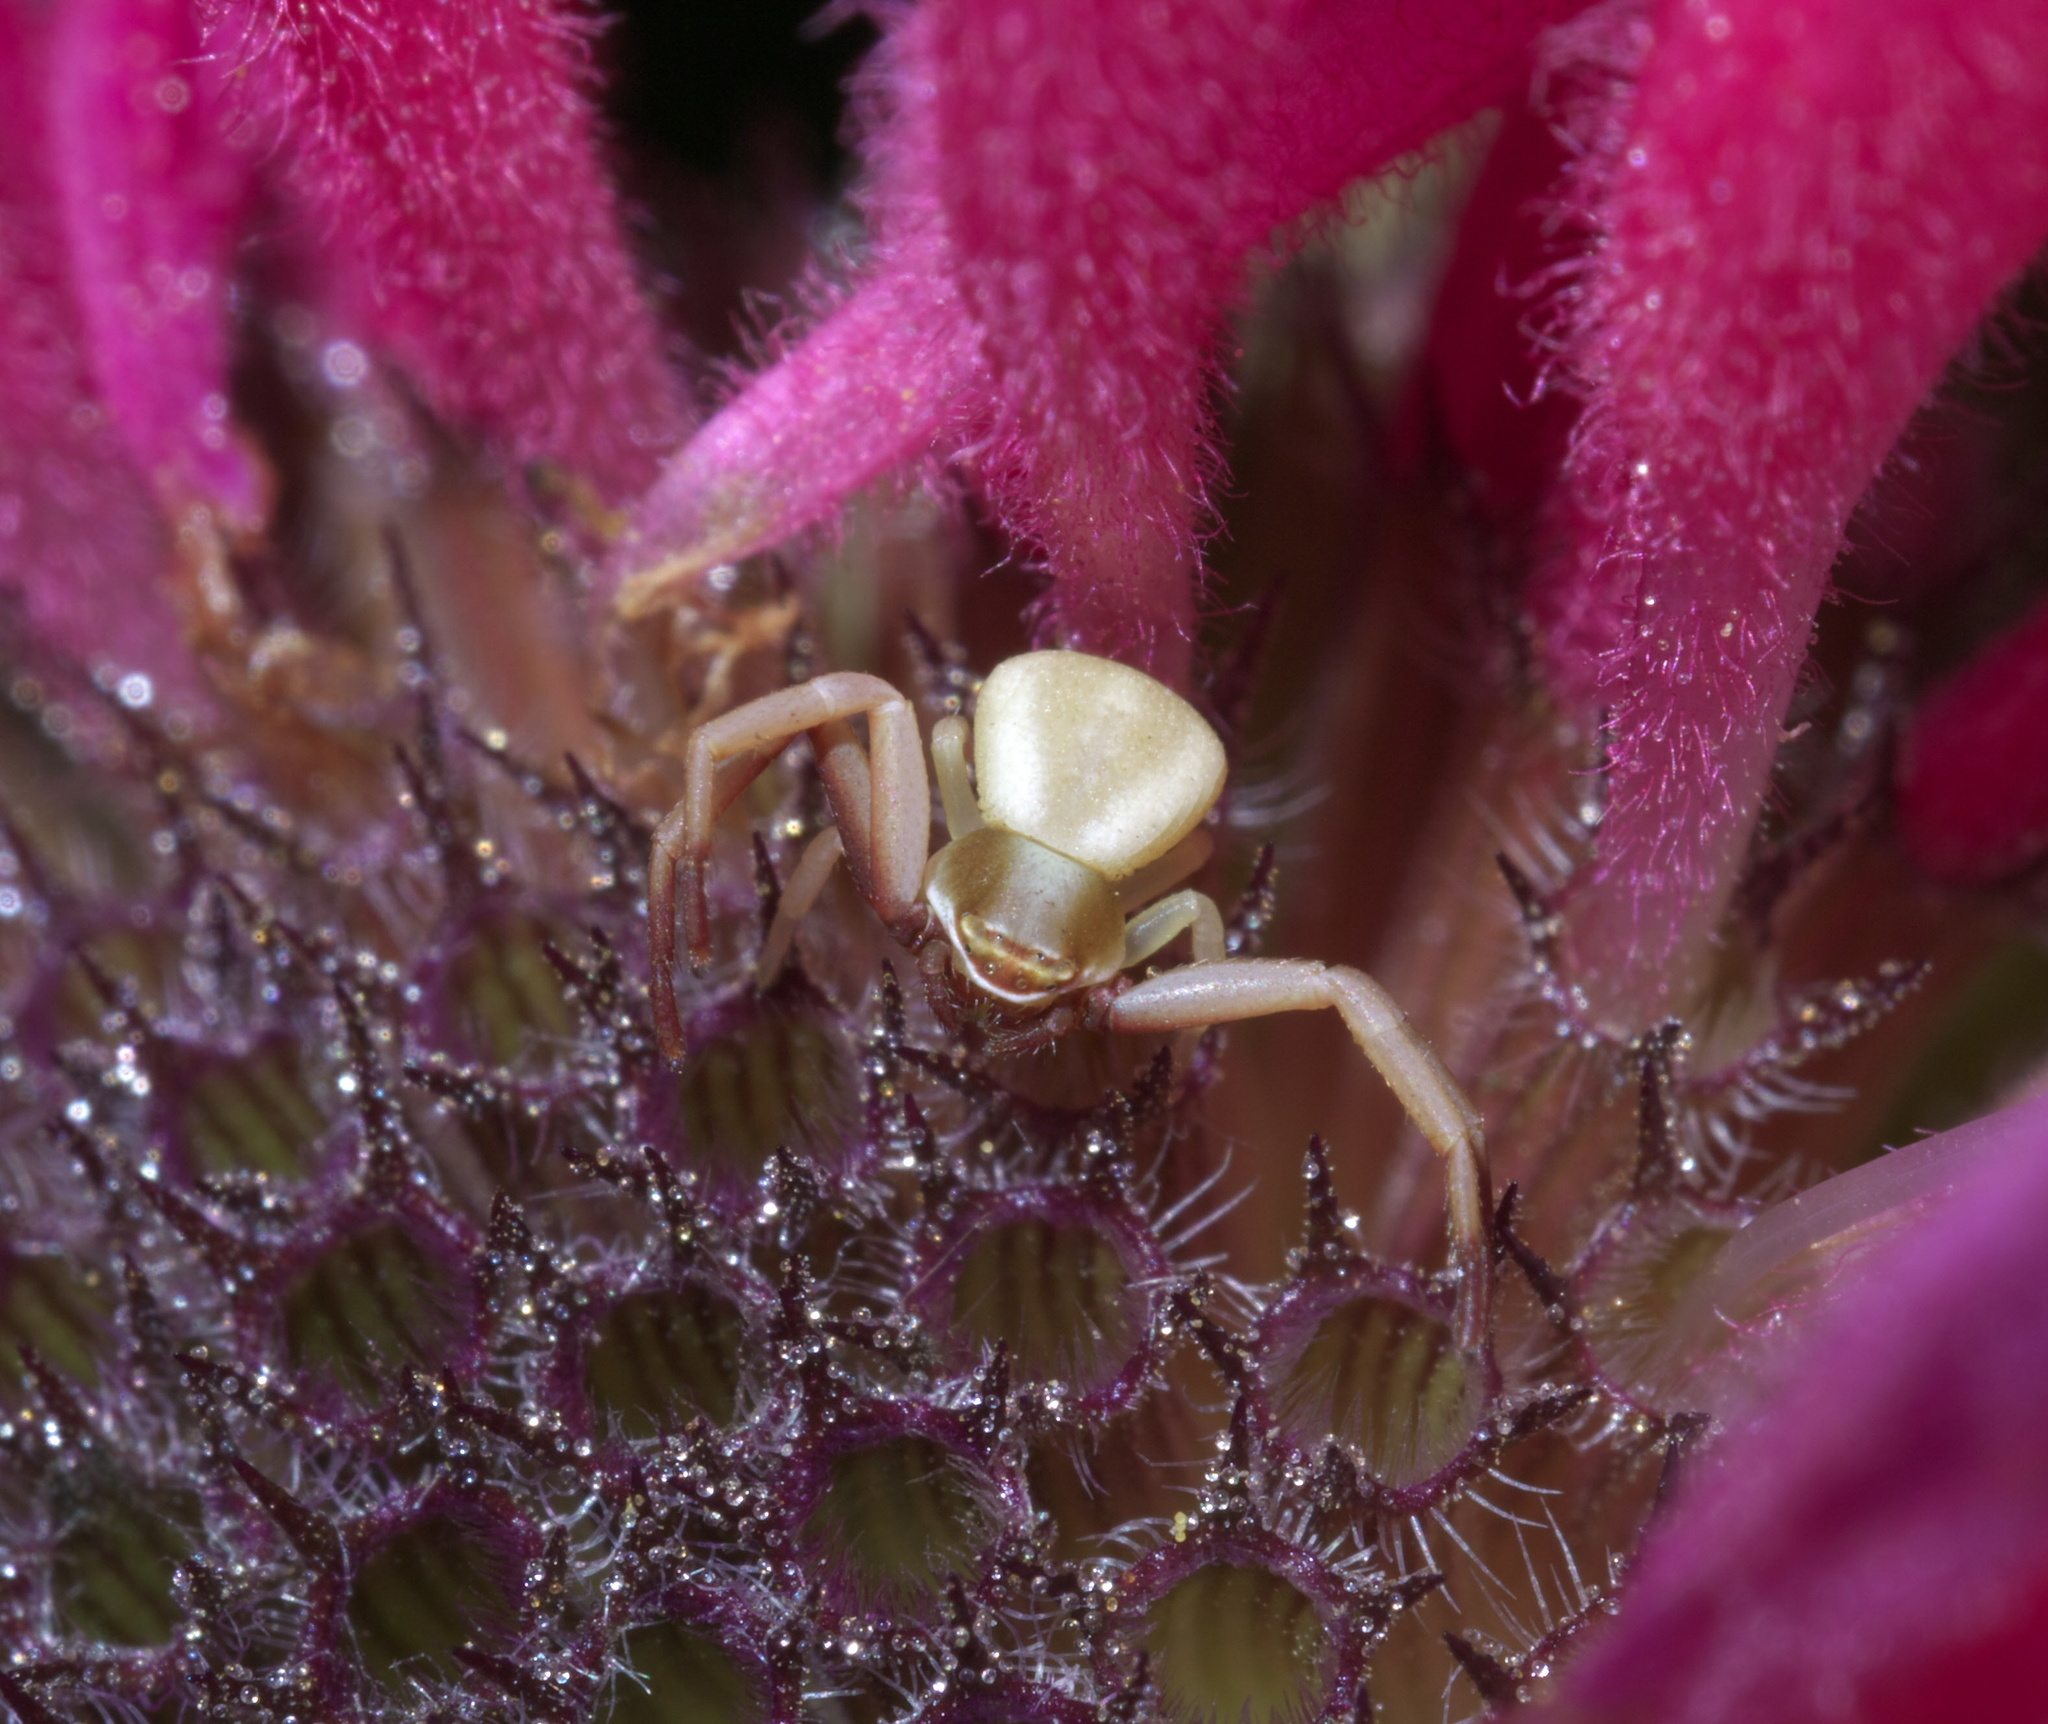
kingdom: Animalia
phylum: Arthropoda
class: Arachnida
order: Araneae
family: Thomisidae
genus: Misumenoides
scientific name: Misumenoides formosipes
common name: White-banded crab spider
